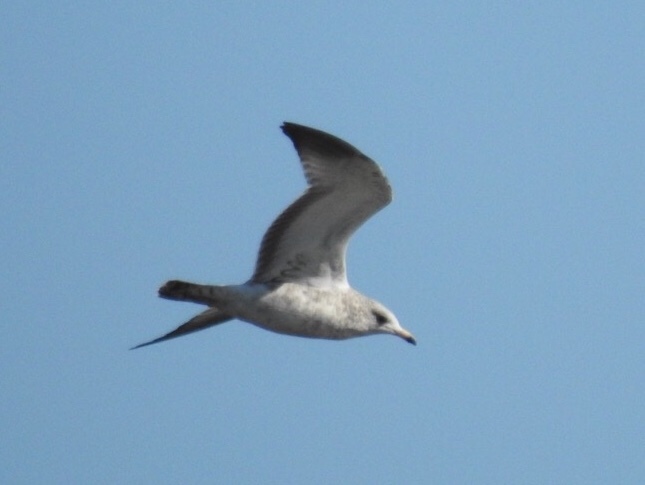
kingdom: Animalia
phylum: Chordata
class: Aves
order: Charadriiformes
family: Laridae
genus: Larus
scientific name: Larus delawarensis
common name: Ring-billed gull
